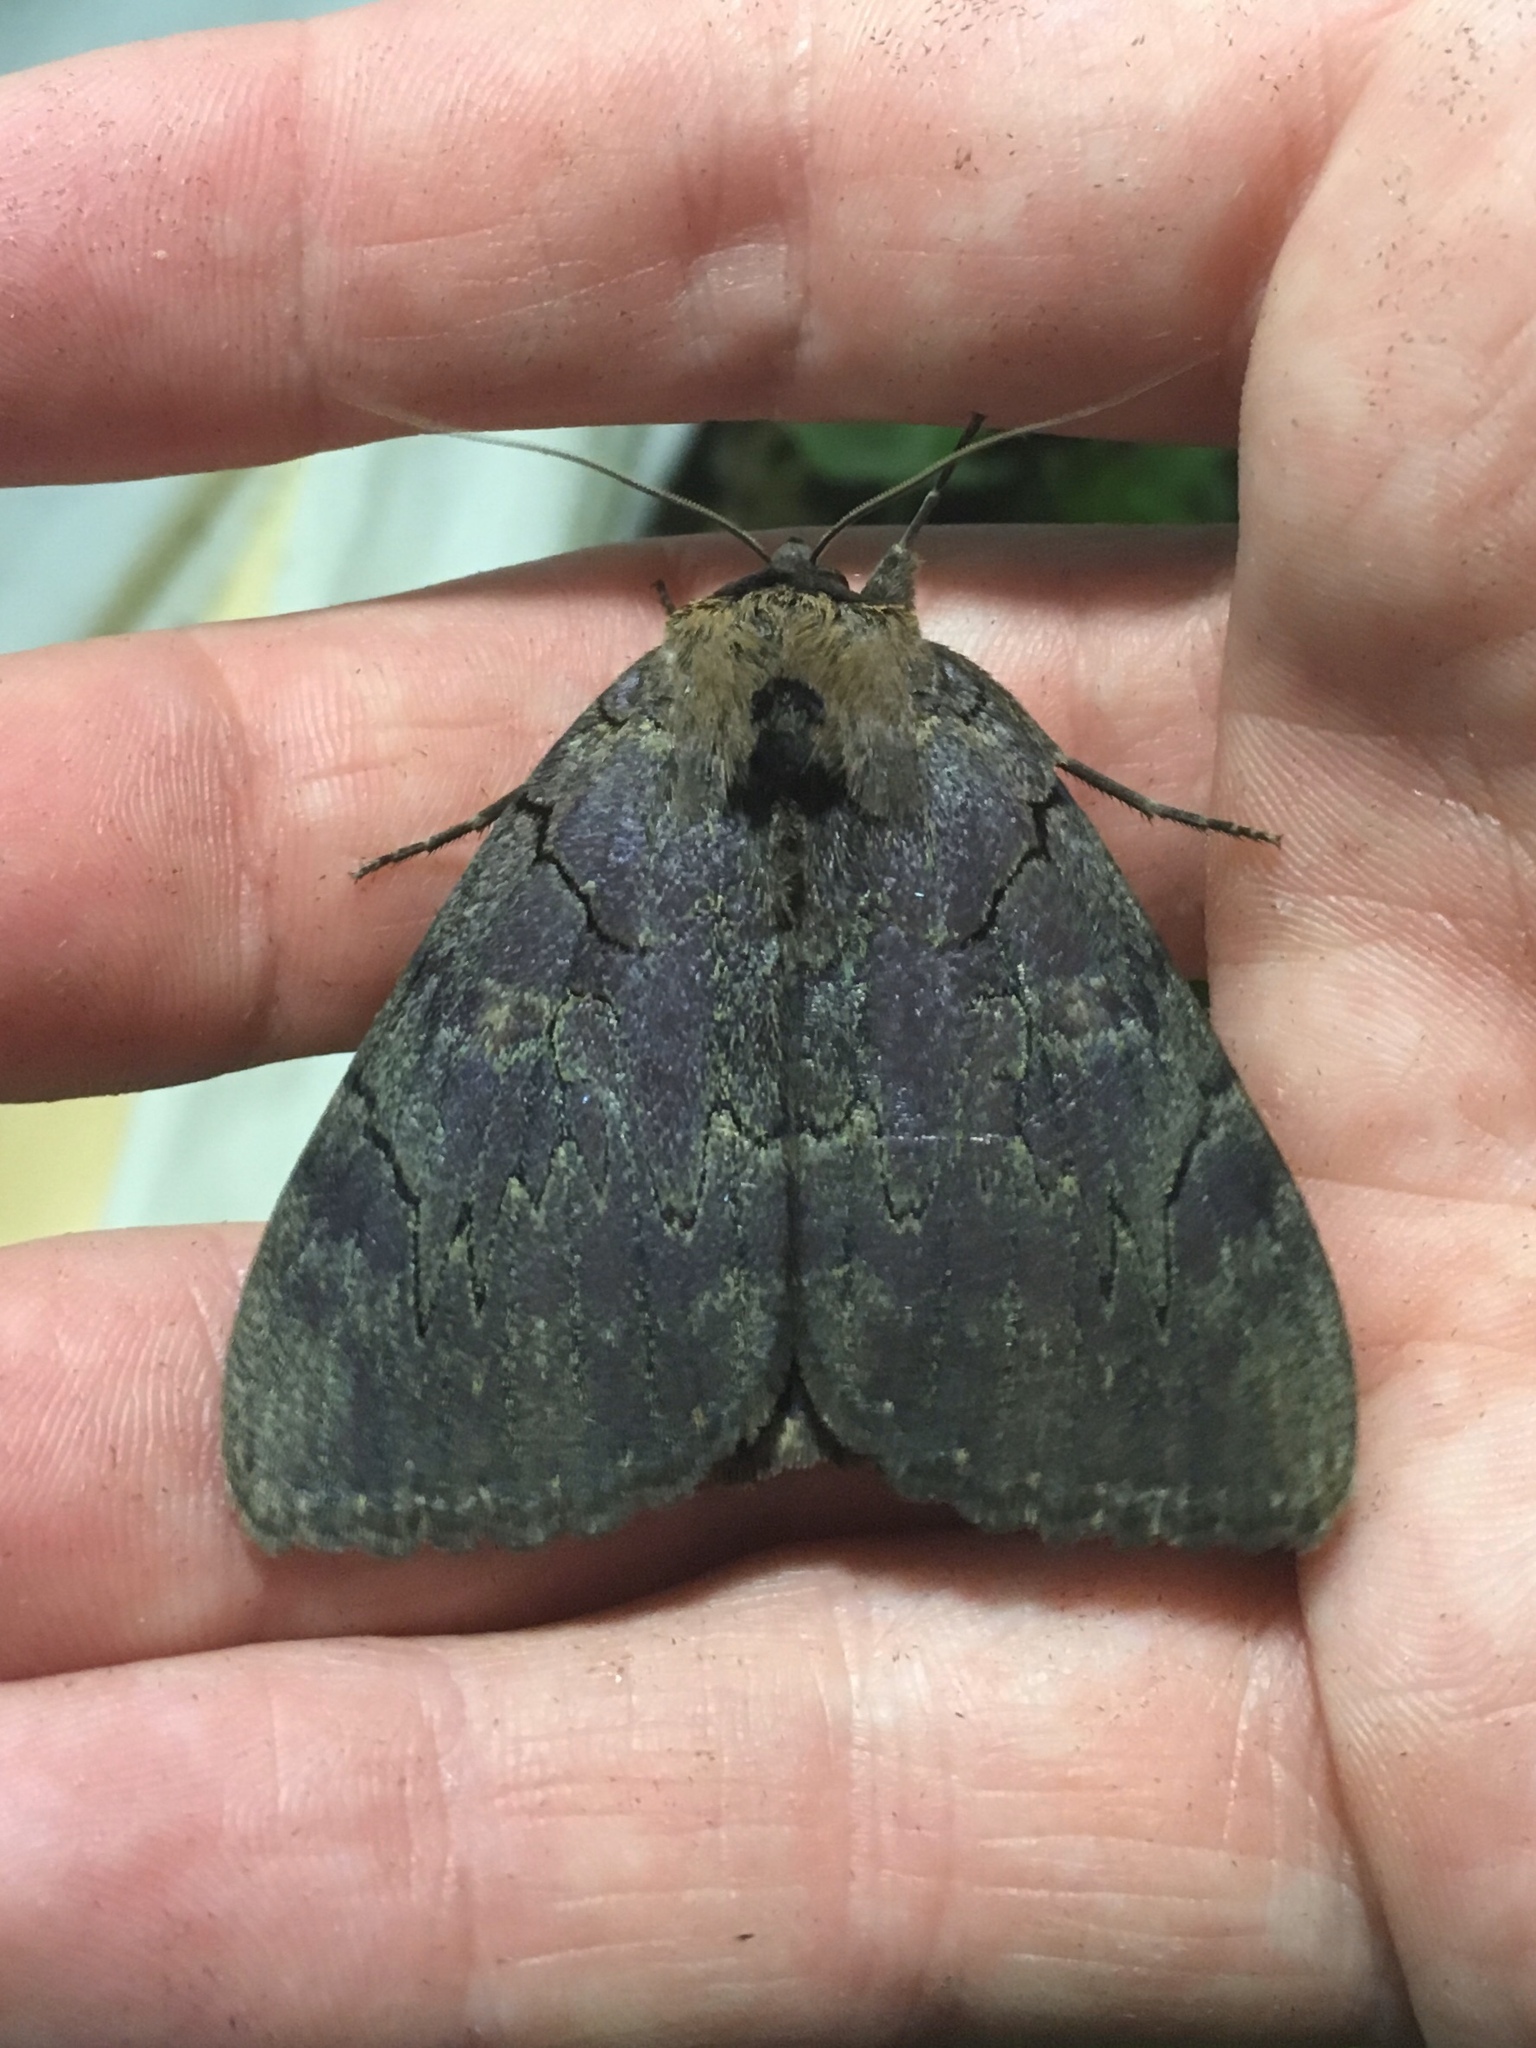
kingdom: Animalia
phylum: Arthropoda
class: Insecta
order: Lepidoptera
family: Erebidae
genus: Catocala
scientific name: Catocala cara
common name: Darling underwing
